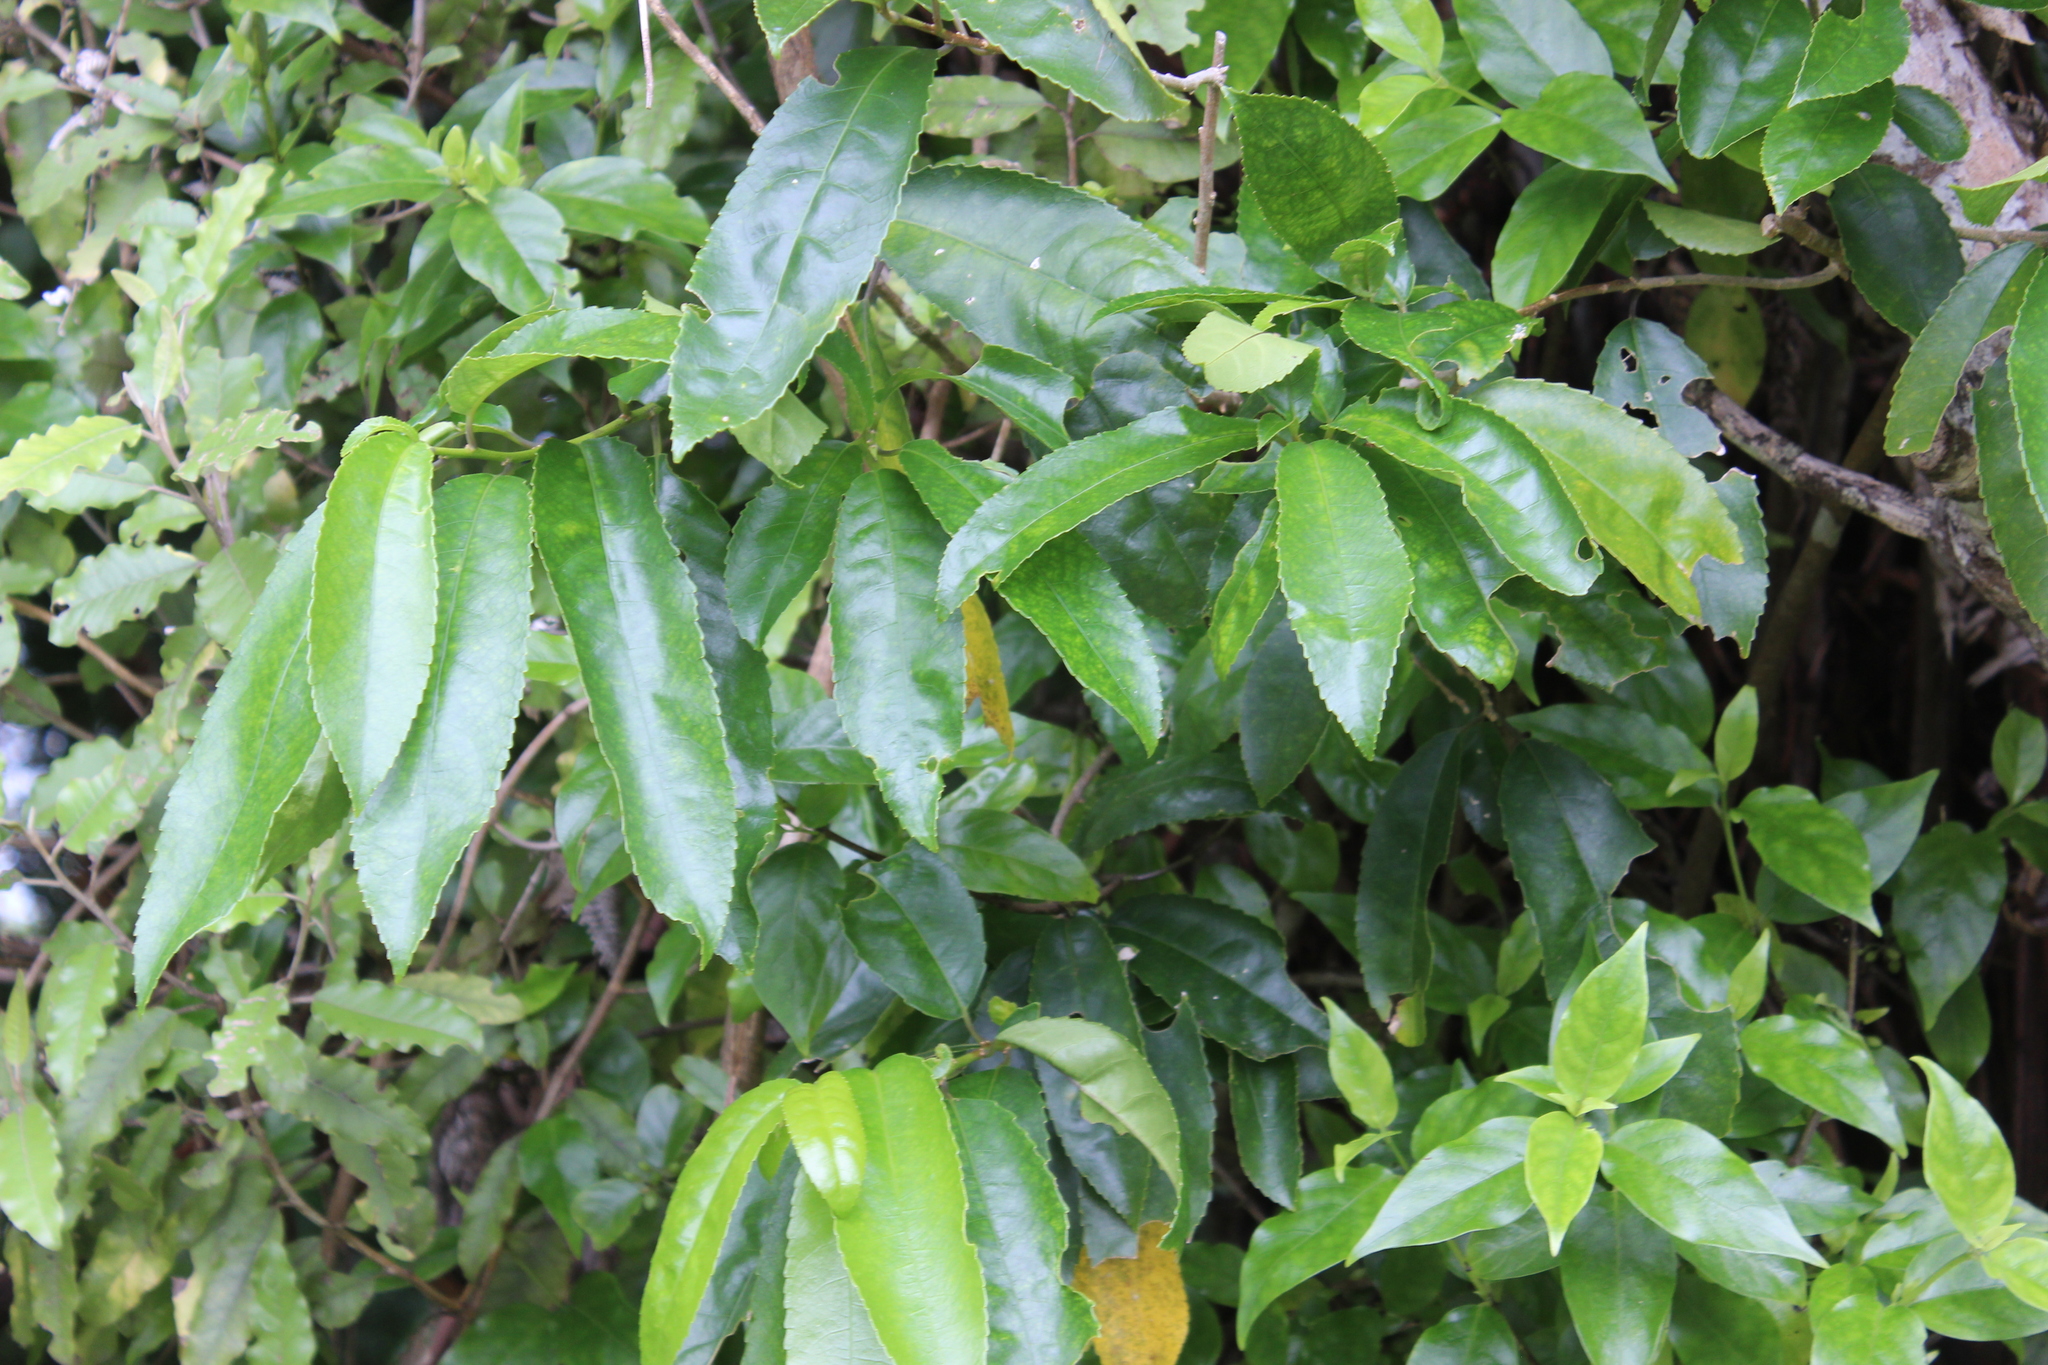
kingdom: Plantae
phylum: Tracheophyta
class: Magnoliopsida
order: Malpighiales
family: Violaceae
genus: Melicytus
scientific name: Melicytus ramiflorus
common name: Mahoe
